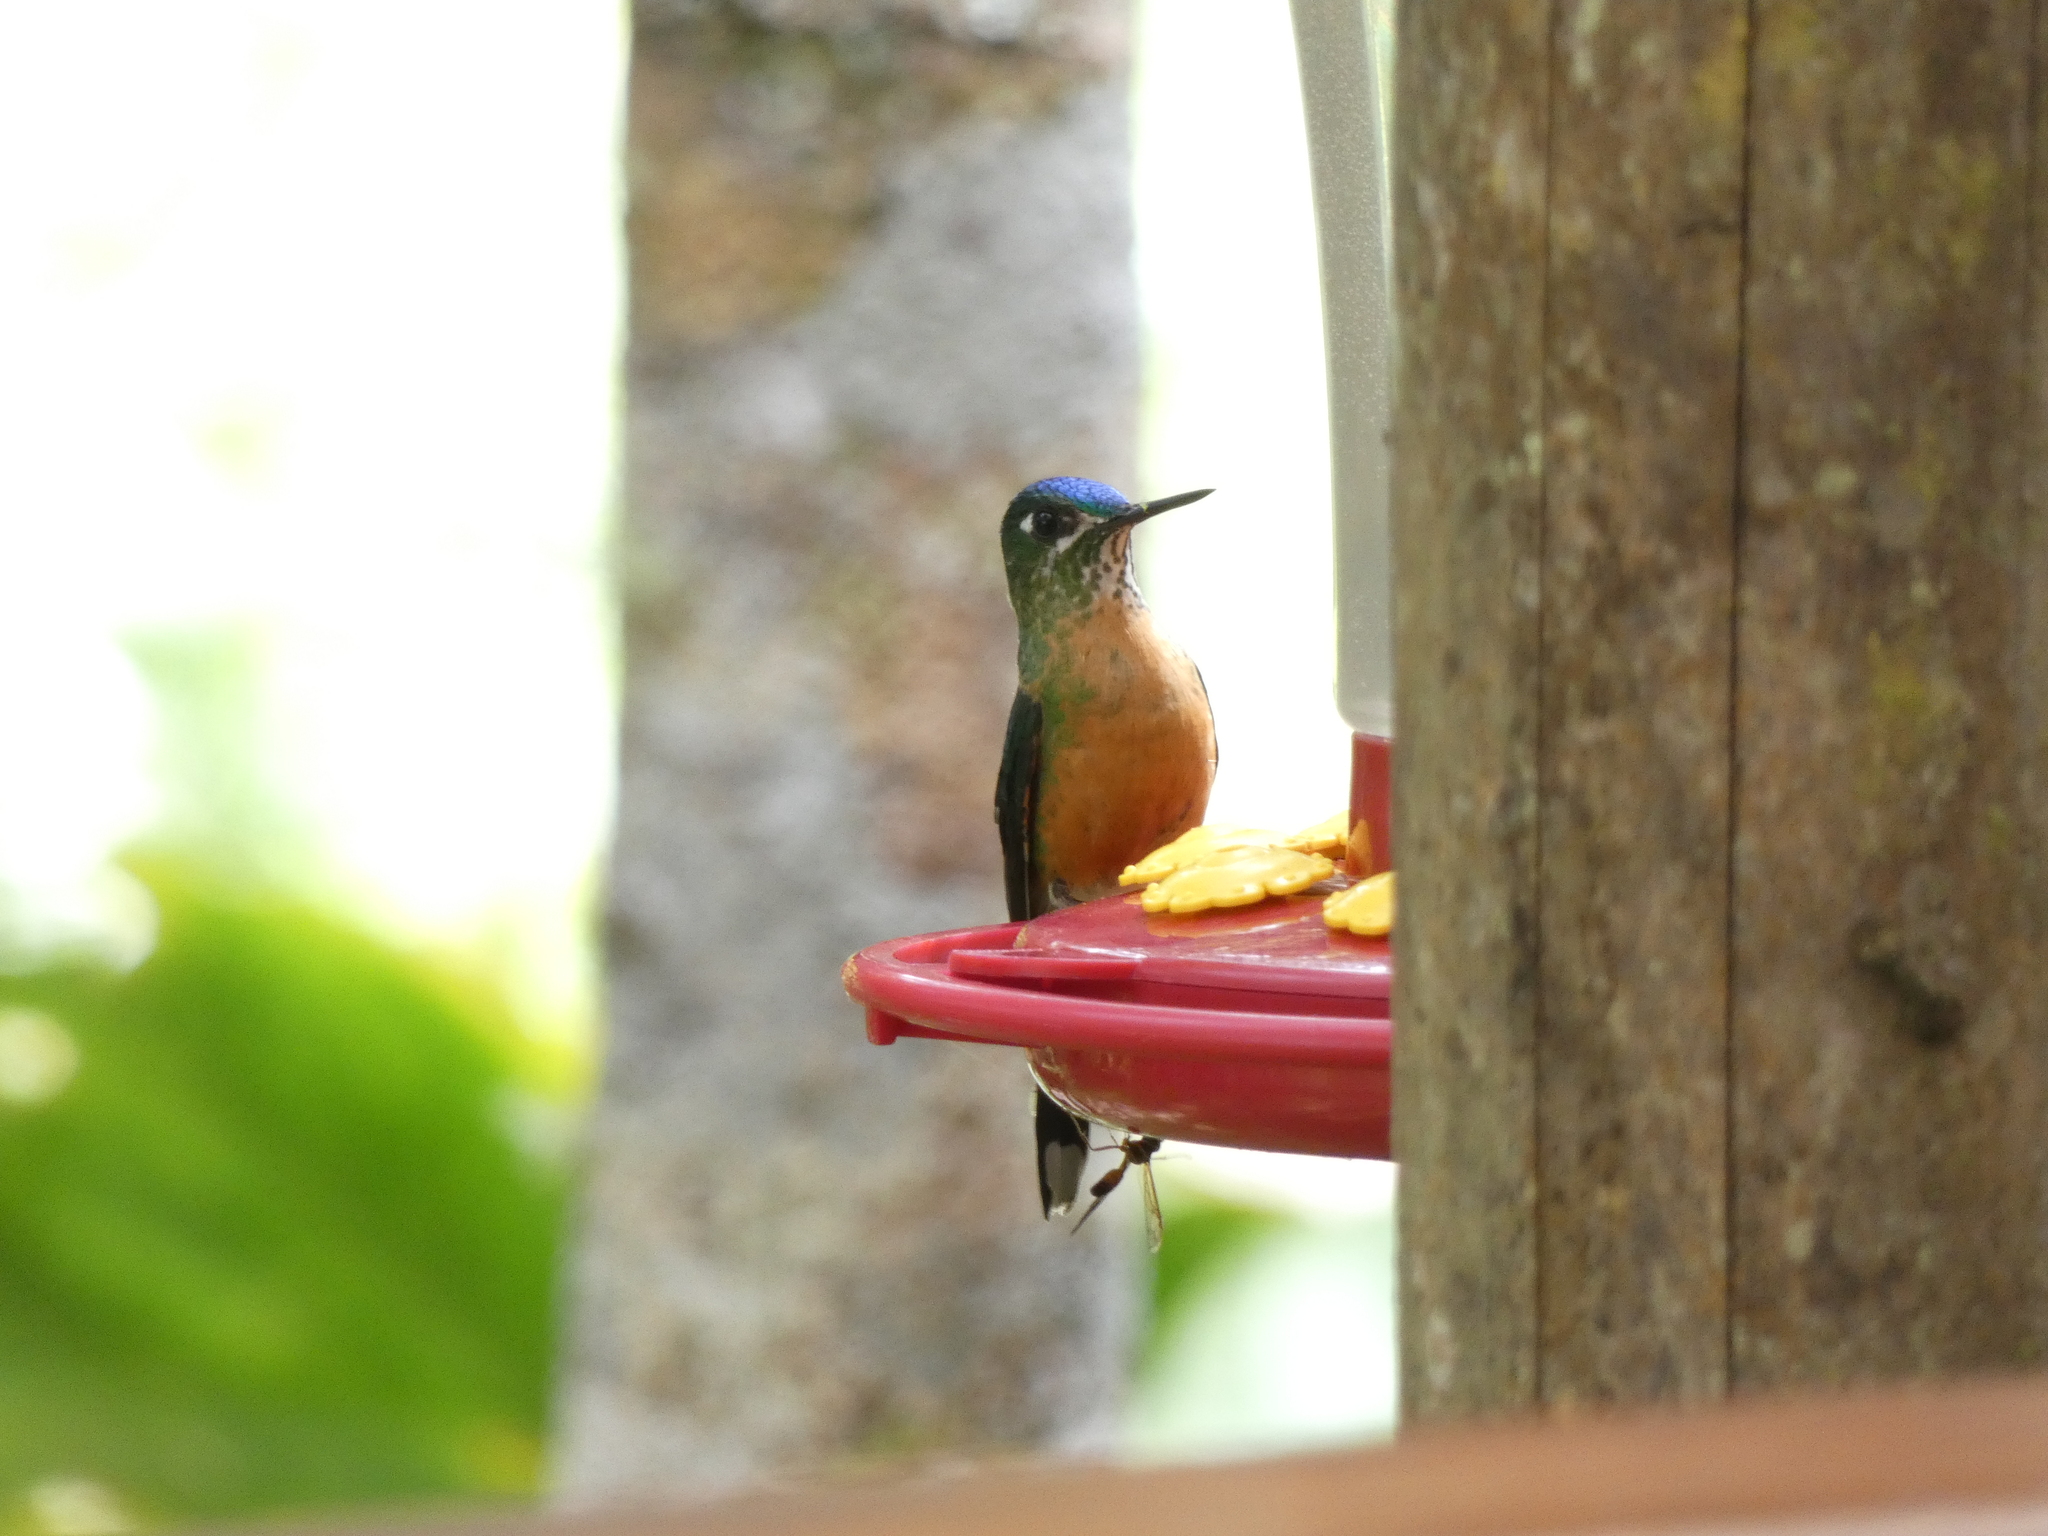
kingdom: Animalia
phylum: Chordata
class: Aves
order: Apodiformes
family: Trochilidae
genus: Aglaiocercus
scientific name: Aglaiocercus kingii
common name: Long-tailed sylph
